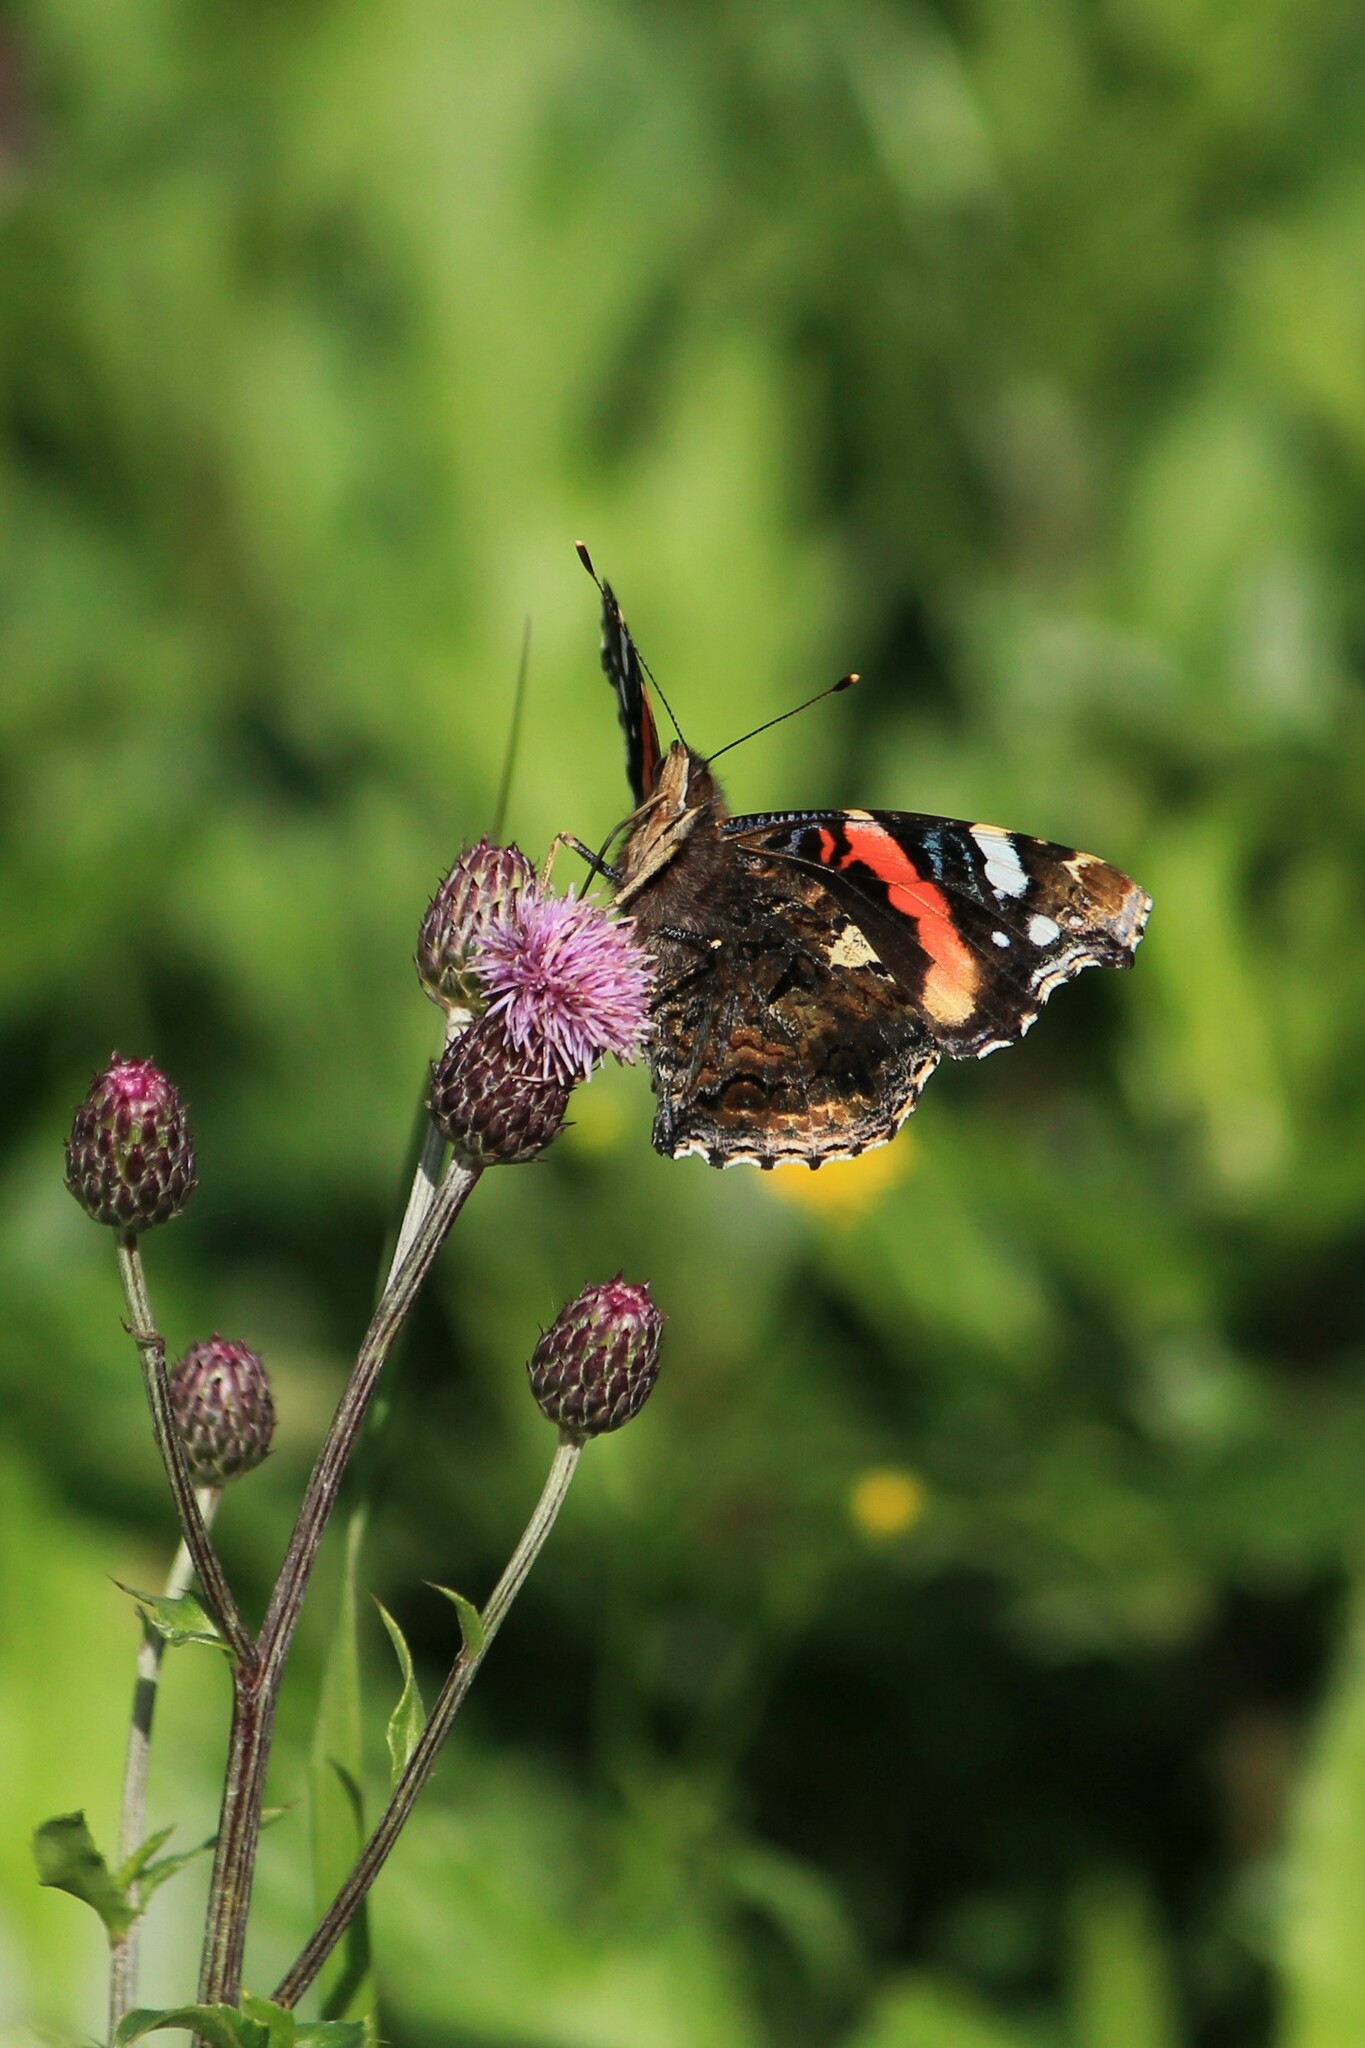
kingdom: Animalia
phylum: Arthropoda
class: Insecta
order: Lepidoptera
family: Nymphalidae
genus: Vanessa
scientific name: Vanessa atalanta
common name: Red admiral
